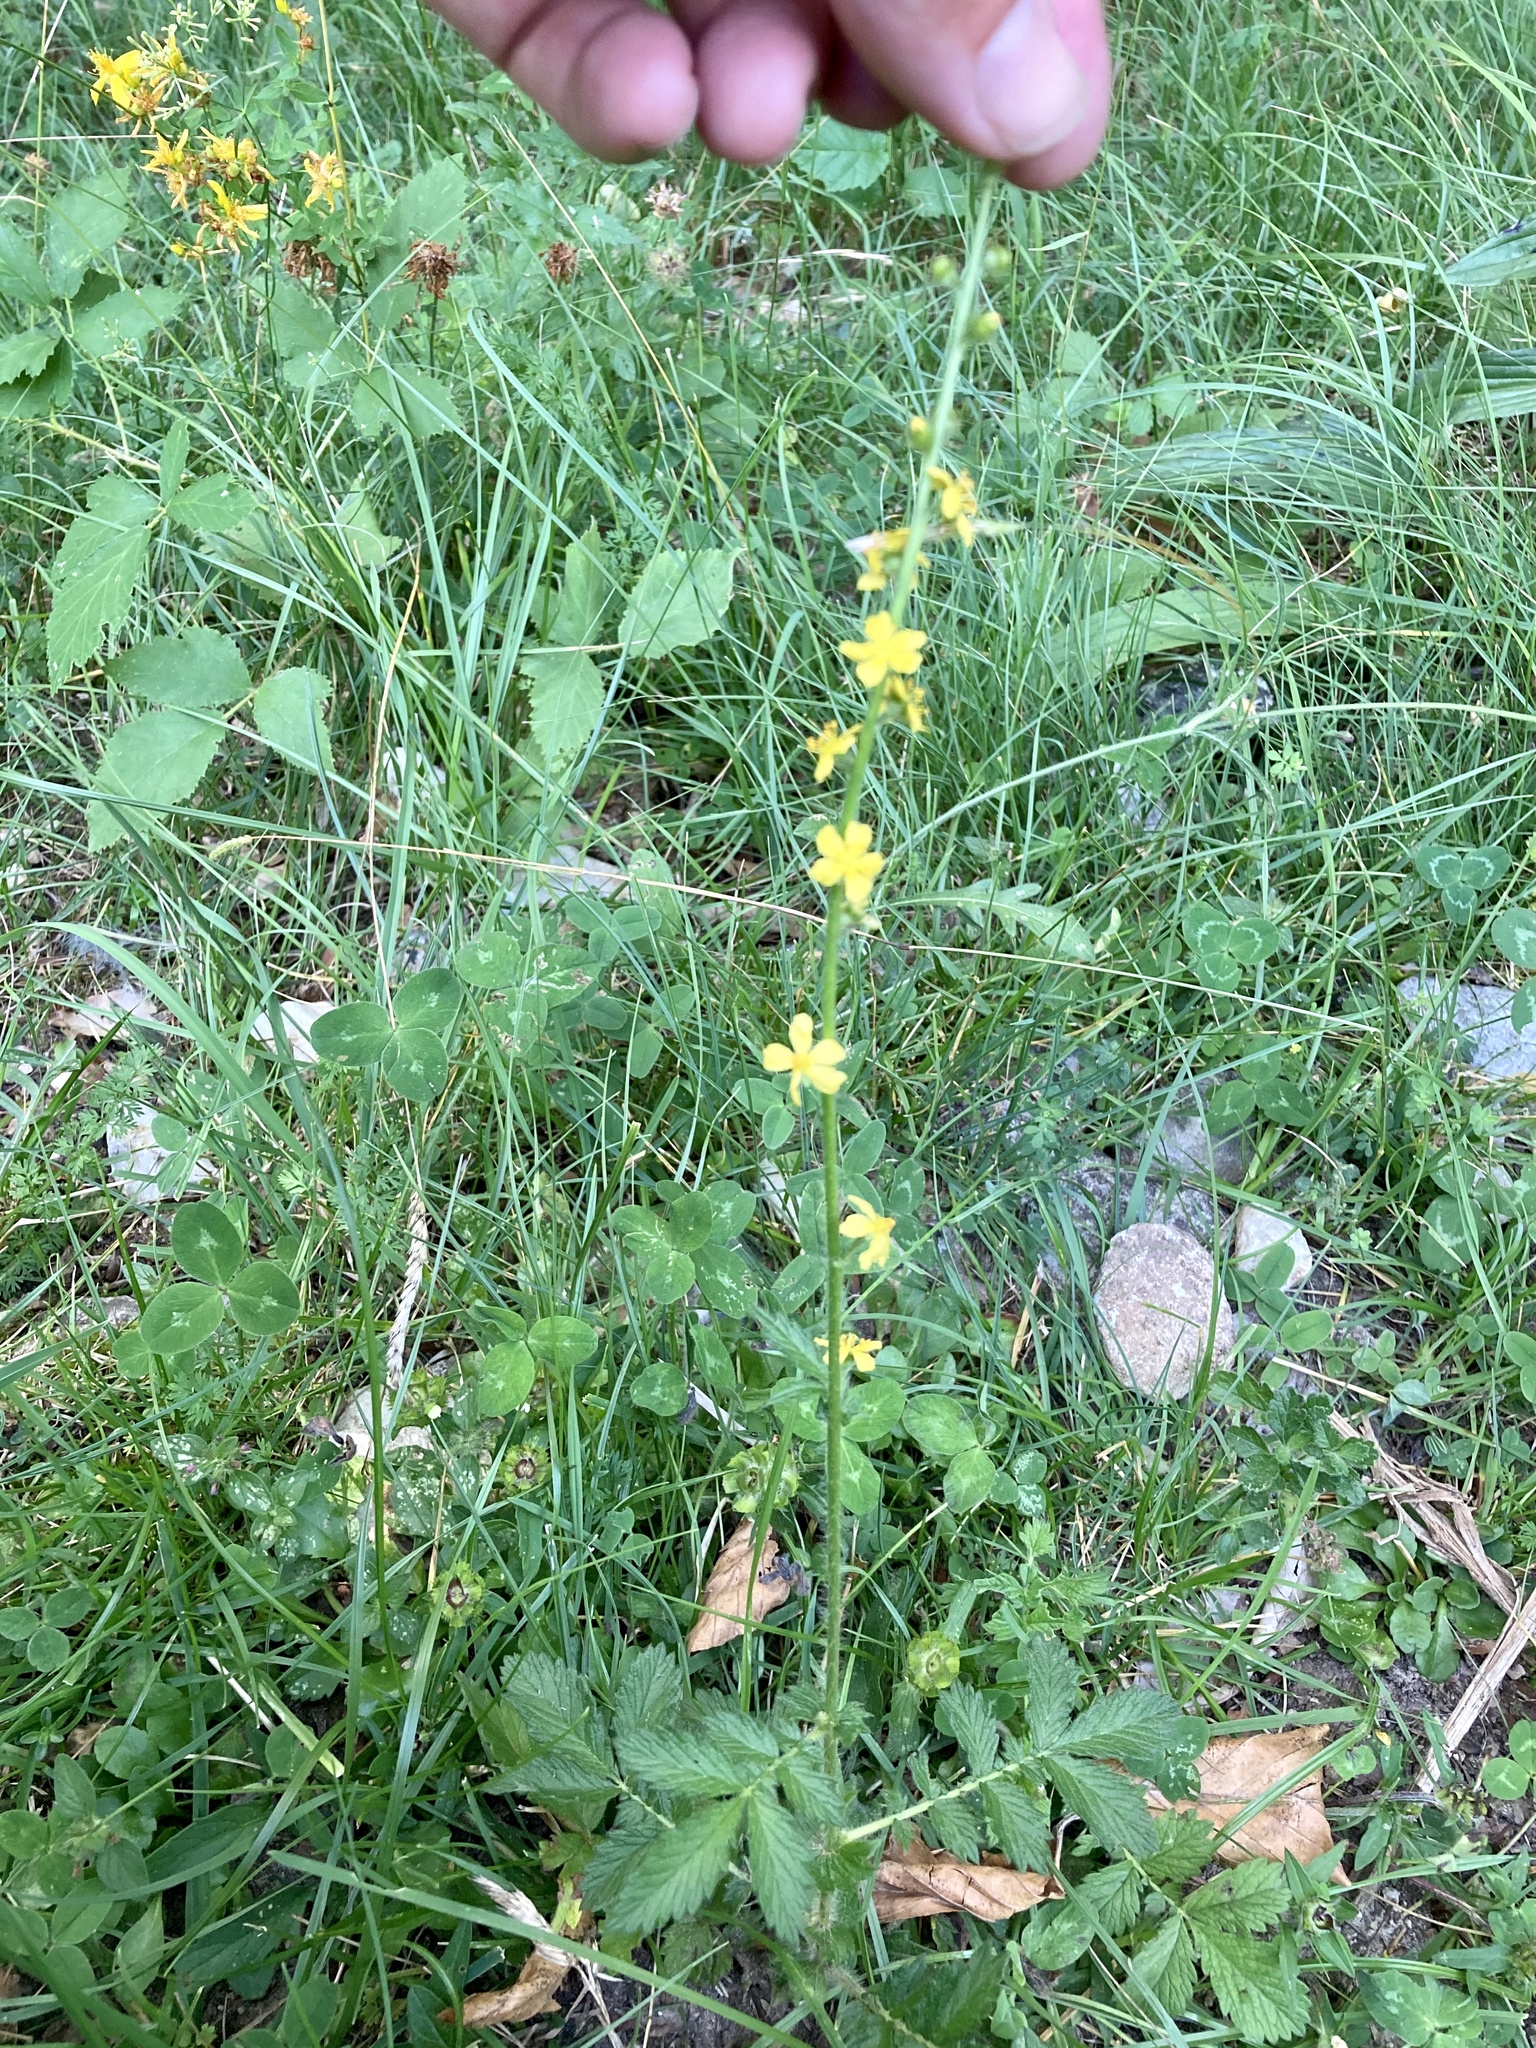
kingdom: Plantae
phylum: Tracheophyta
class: Magnoliopsida
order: Rosales
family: Rosaceae
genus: Agrimonia
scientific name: Agrimonia eupatoria
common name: Agrimony
